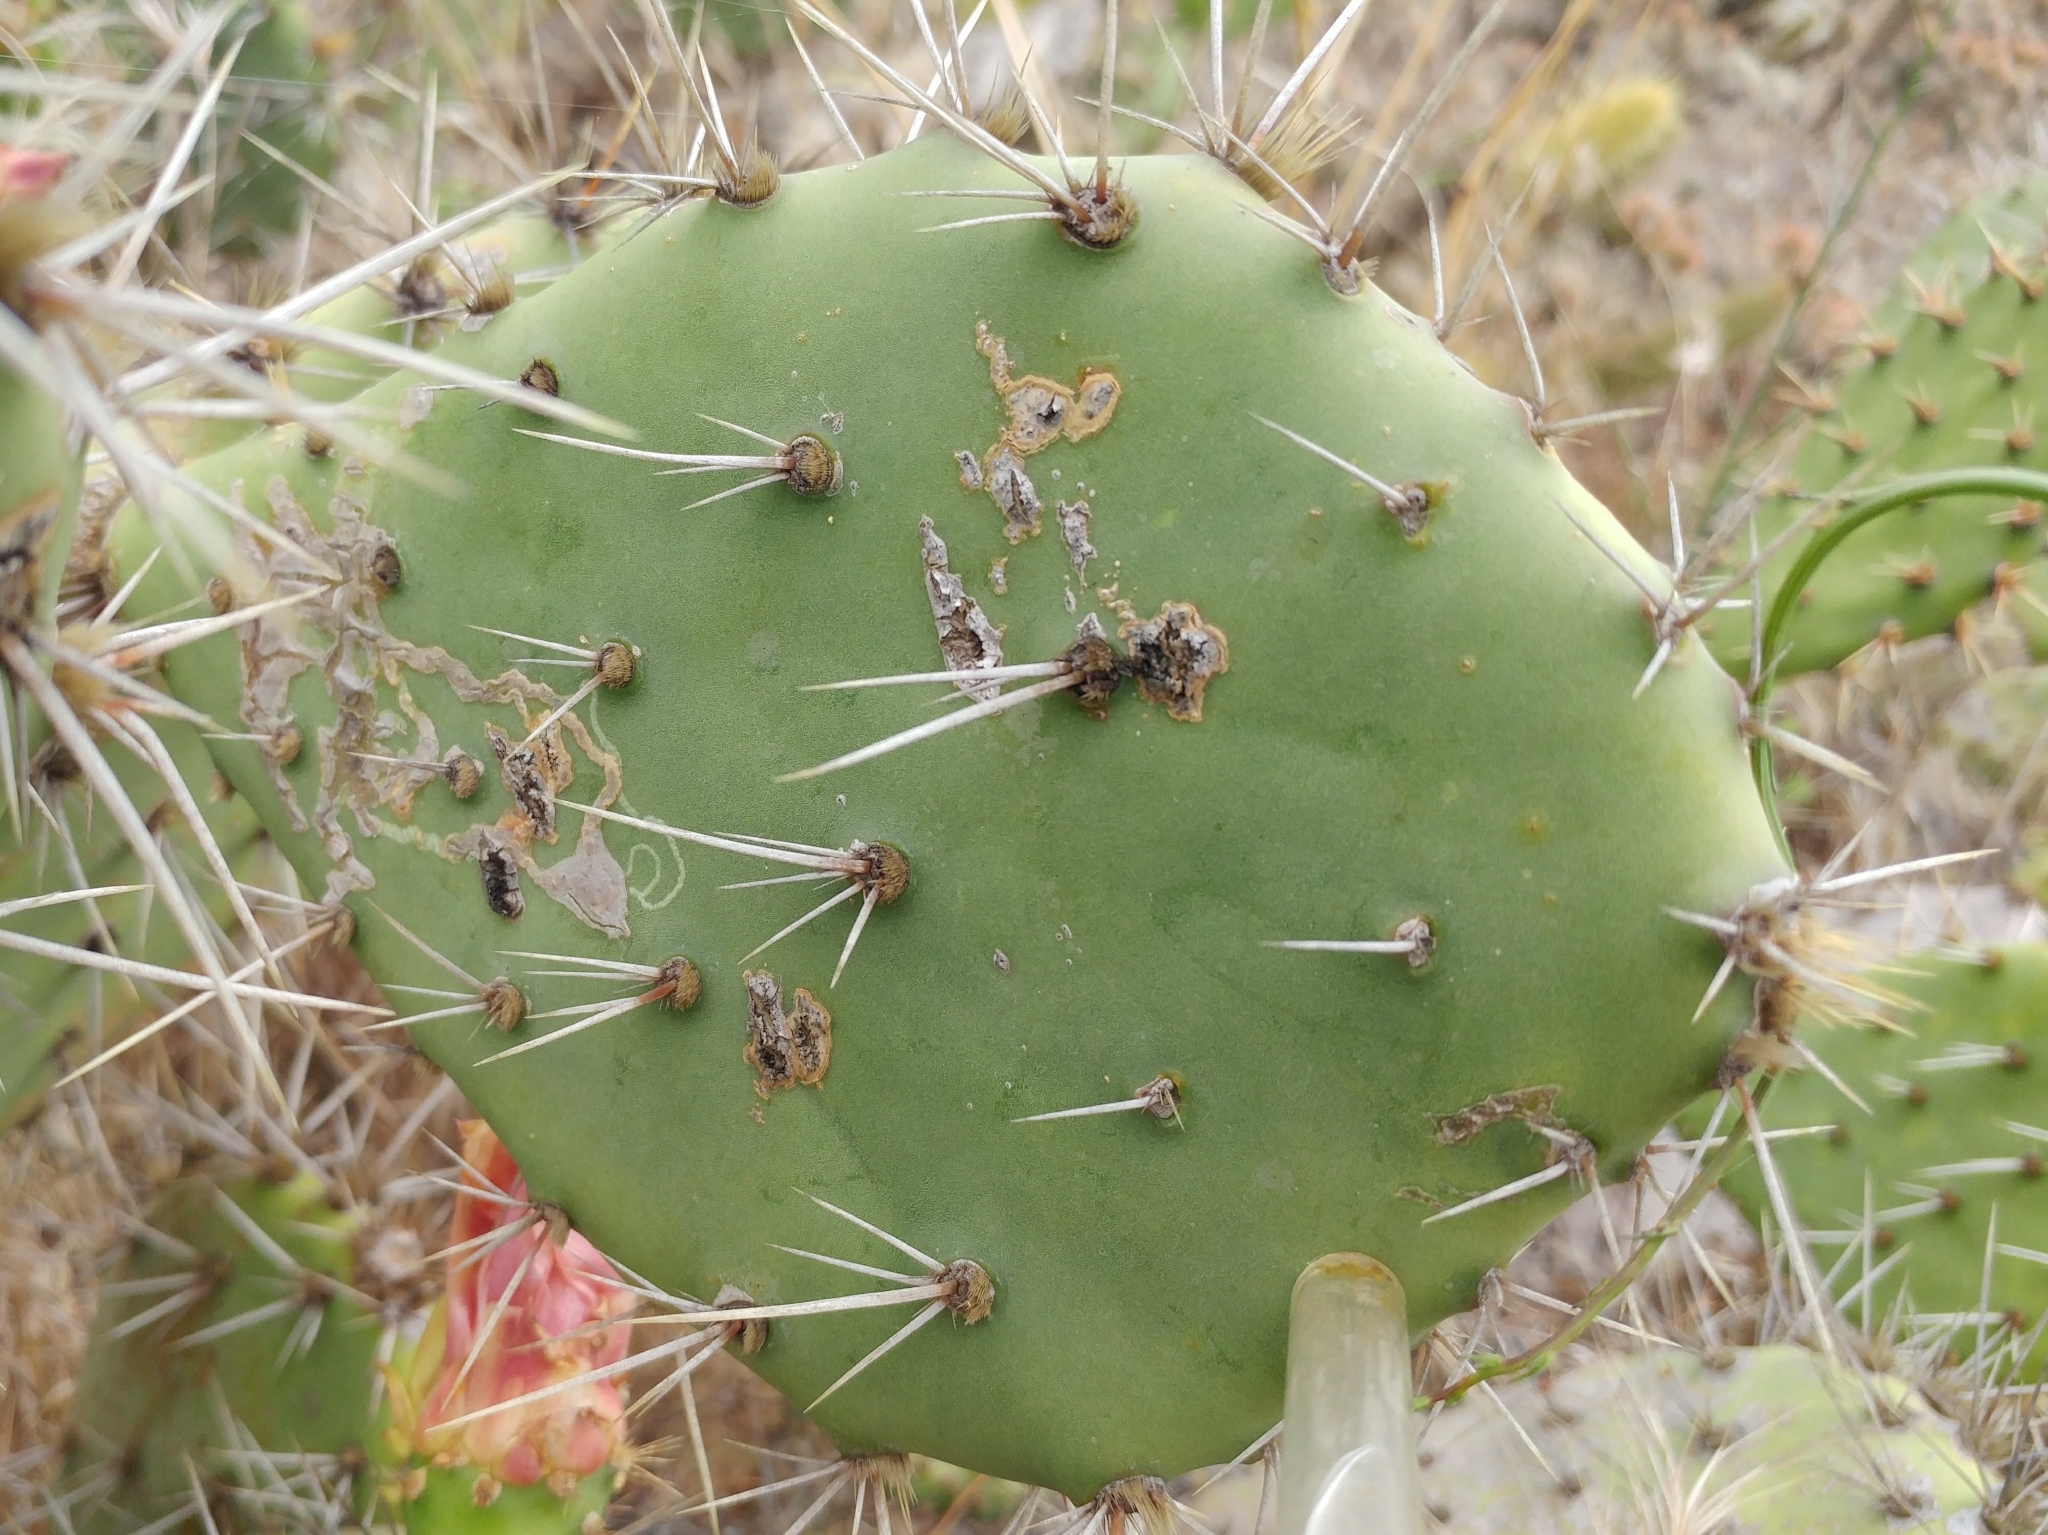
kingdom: Animalia
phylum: Arthropoda
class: Insecta
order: Lepidoptera
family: Gracillariidae
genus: Marmara
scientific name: Marmara opuntiella
